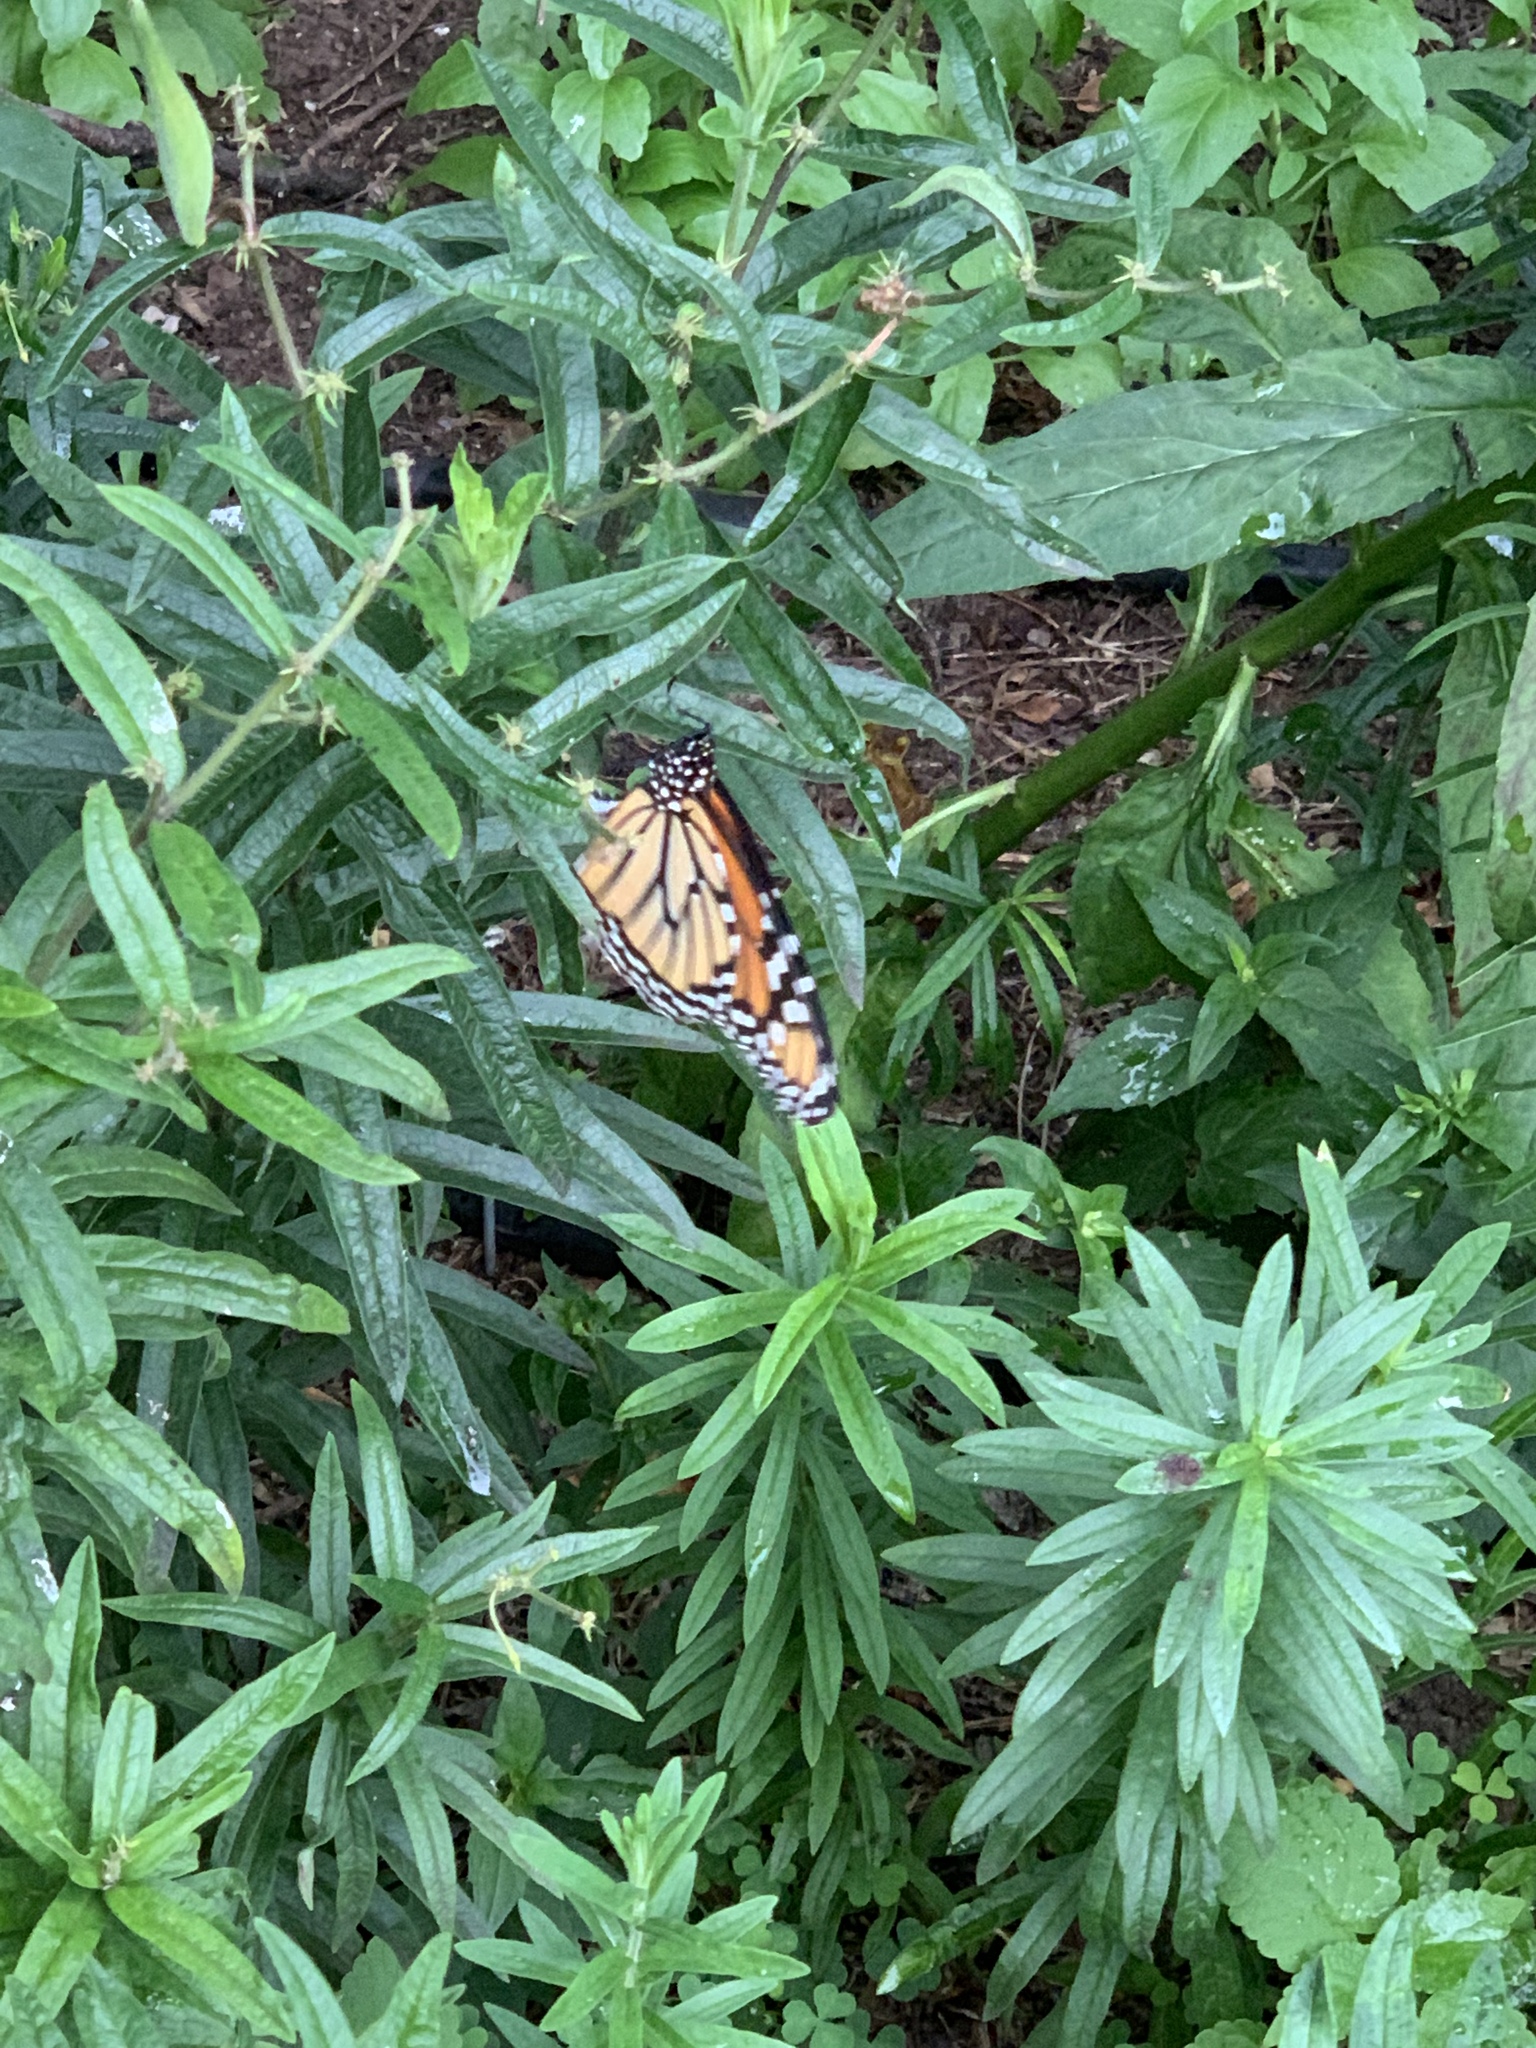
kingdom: Animalia
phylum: Arthropoda
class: Insecta
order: Lepidoptera
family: Nymphalidae
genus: Danaus
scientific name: Danaus plexippus
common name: Monarch
